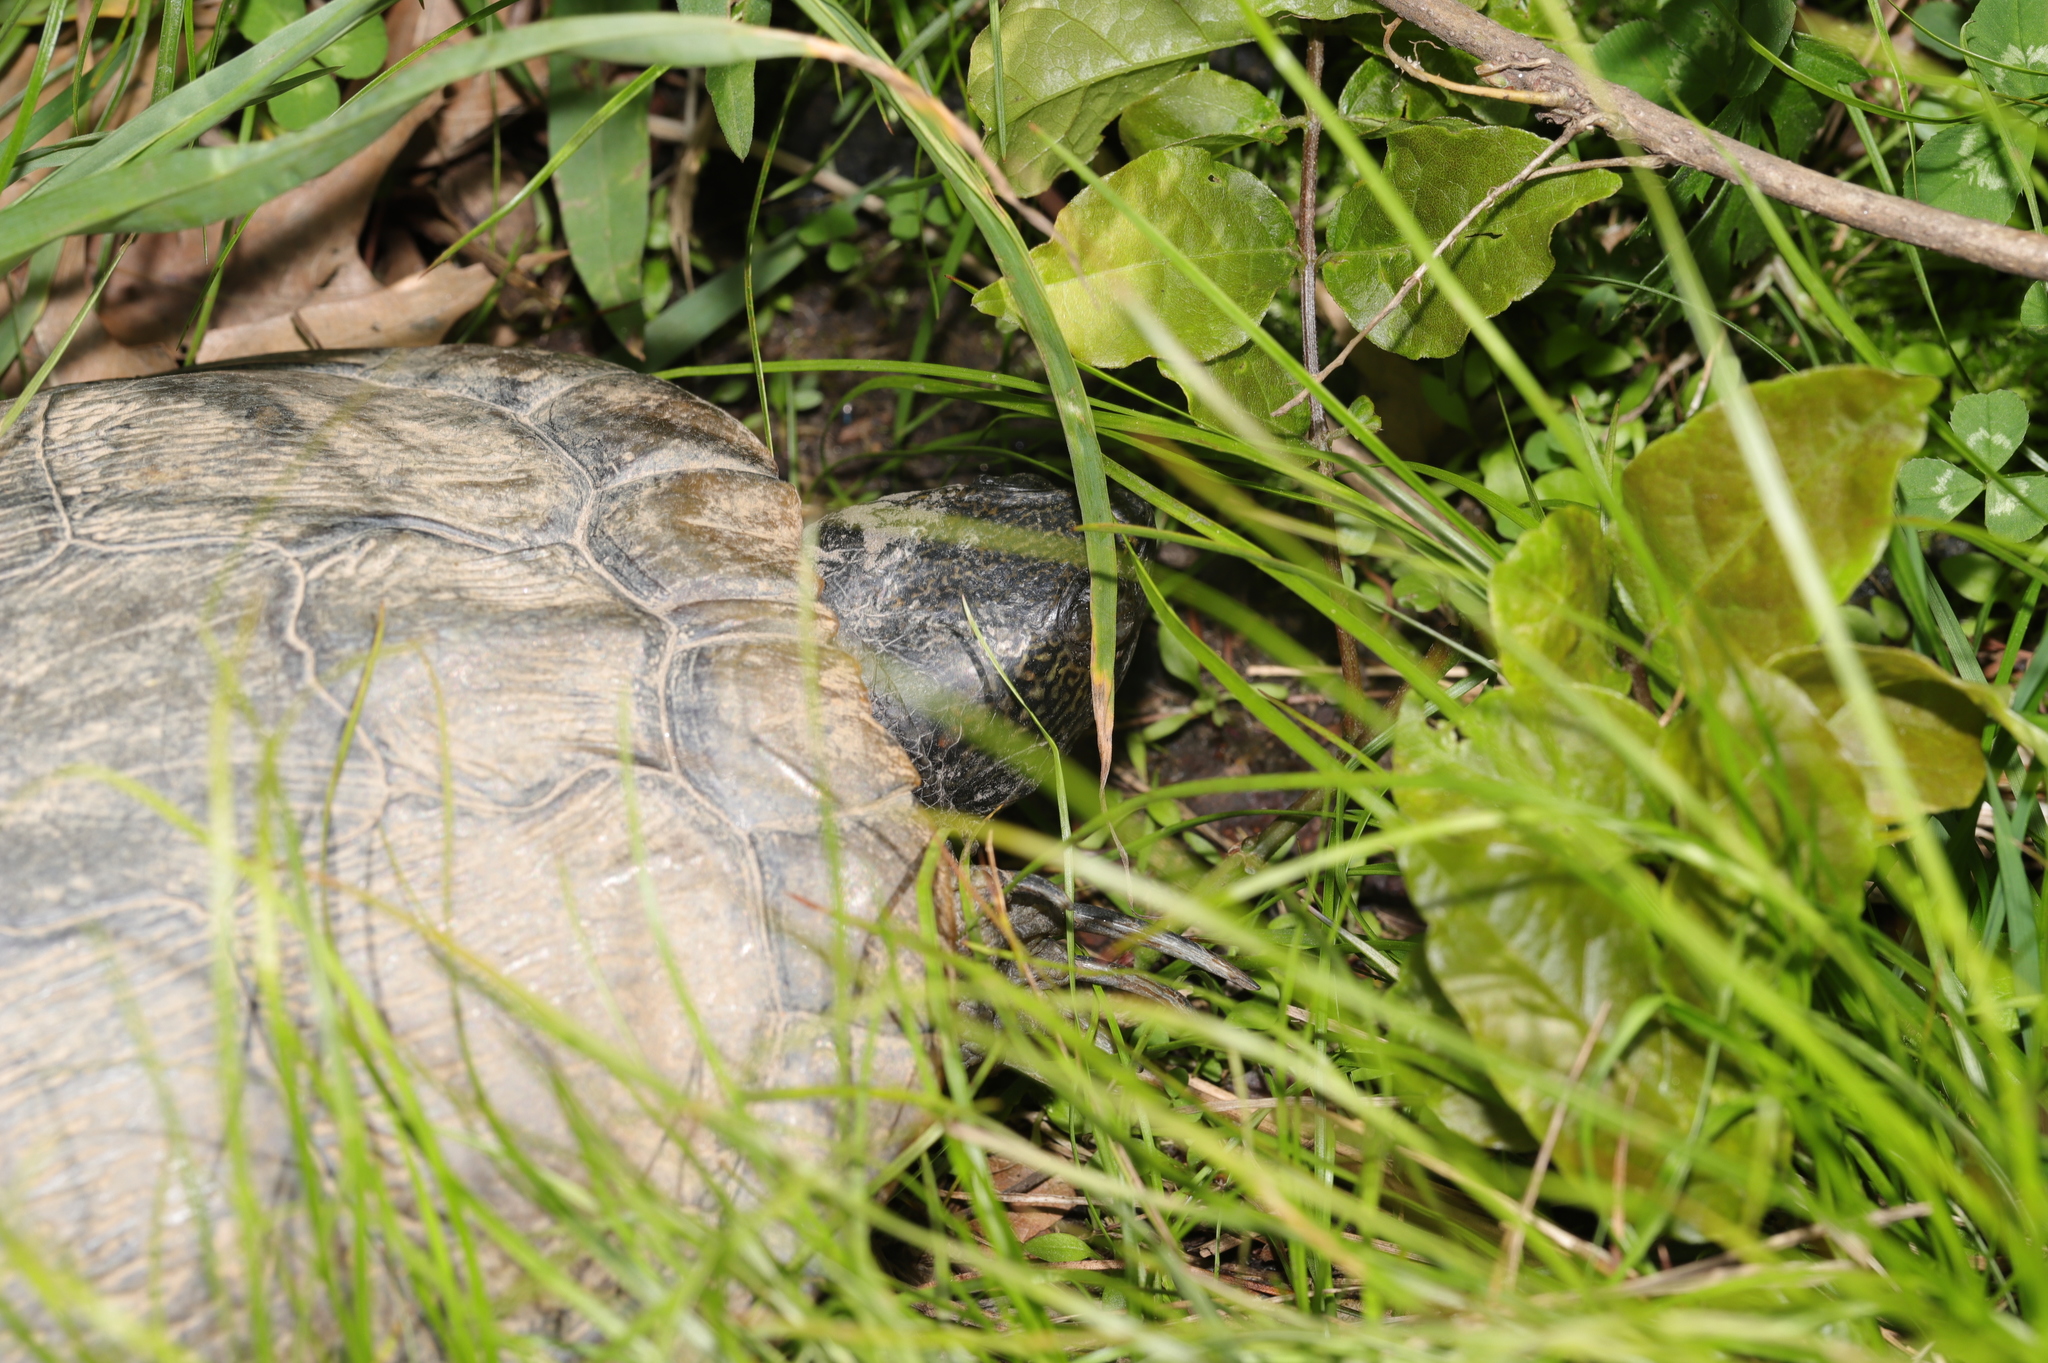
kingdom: Animalia
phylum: Chordata
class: Testudines
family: Emydidae
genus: Trachemys
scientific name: Trachemys scripta
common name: Slider
